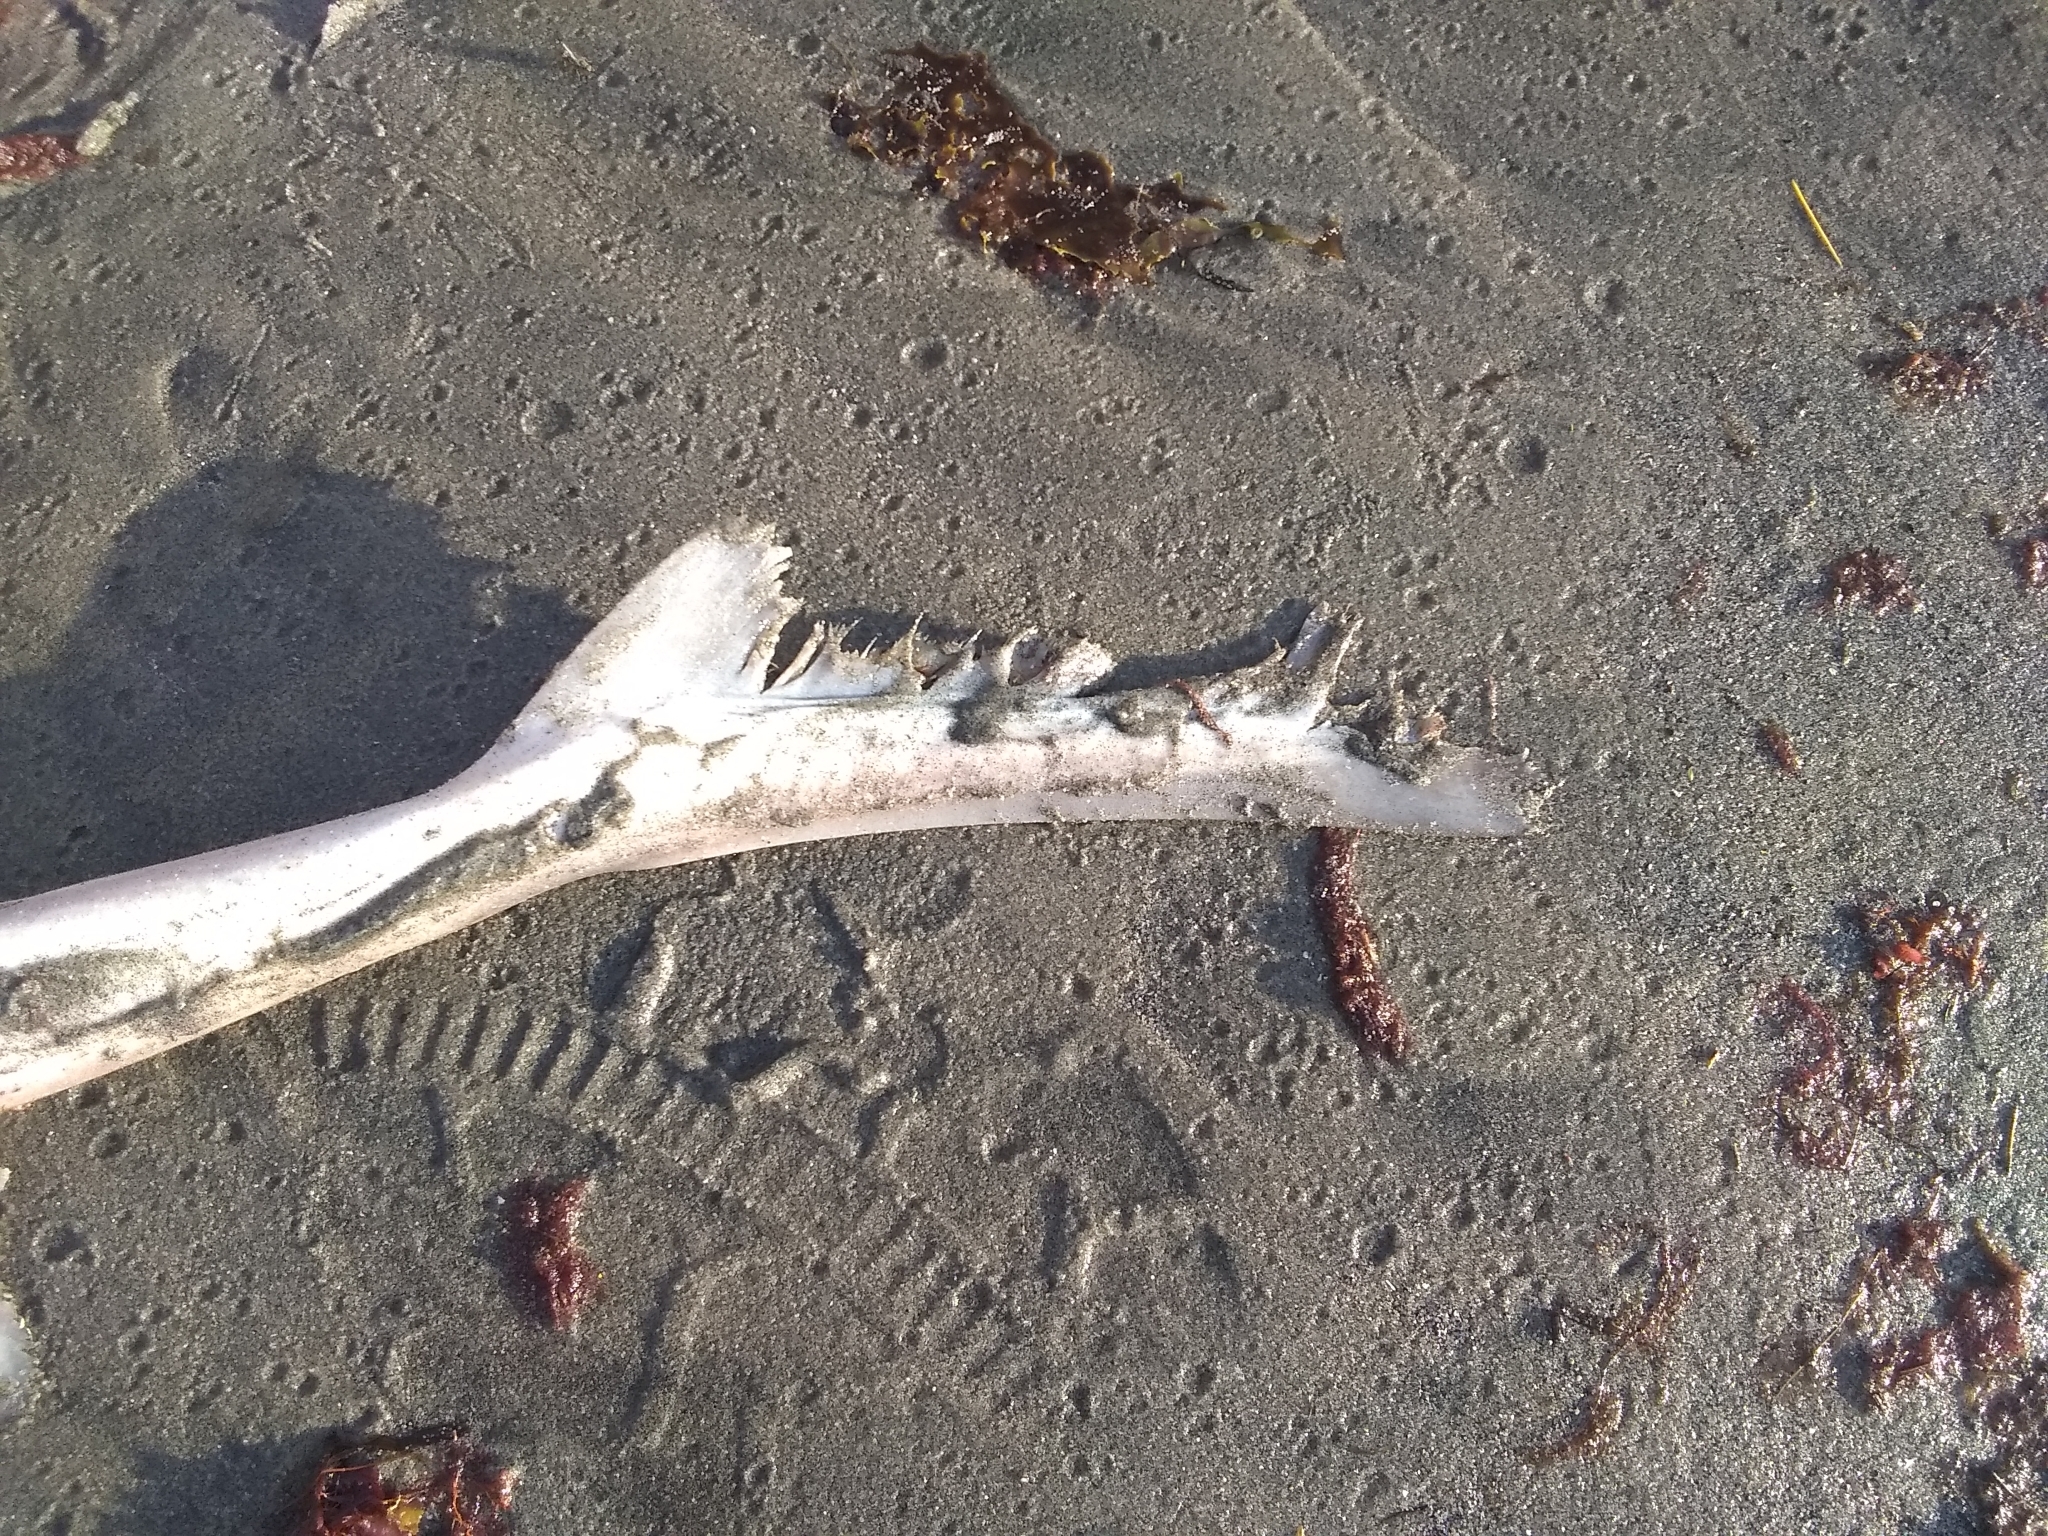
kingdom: Animalia
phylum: Chordata
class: Elasmobranchii
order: Carcharhiniformes
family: Triakidae
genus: Mustelus
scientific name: Mustelus canis
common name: Smooth dogfish
